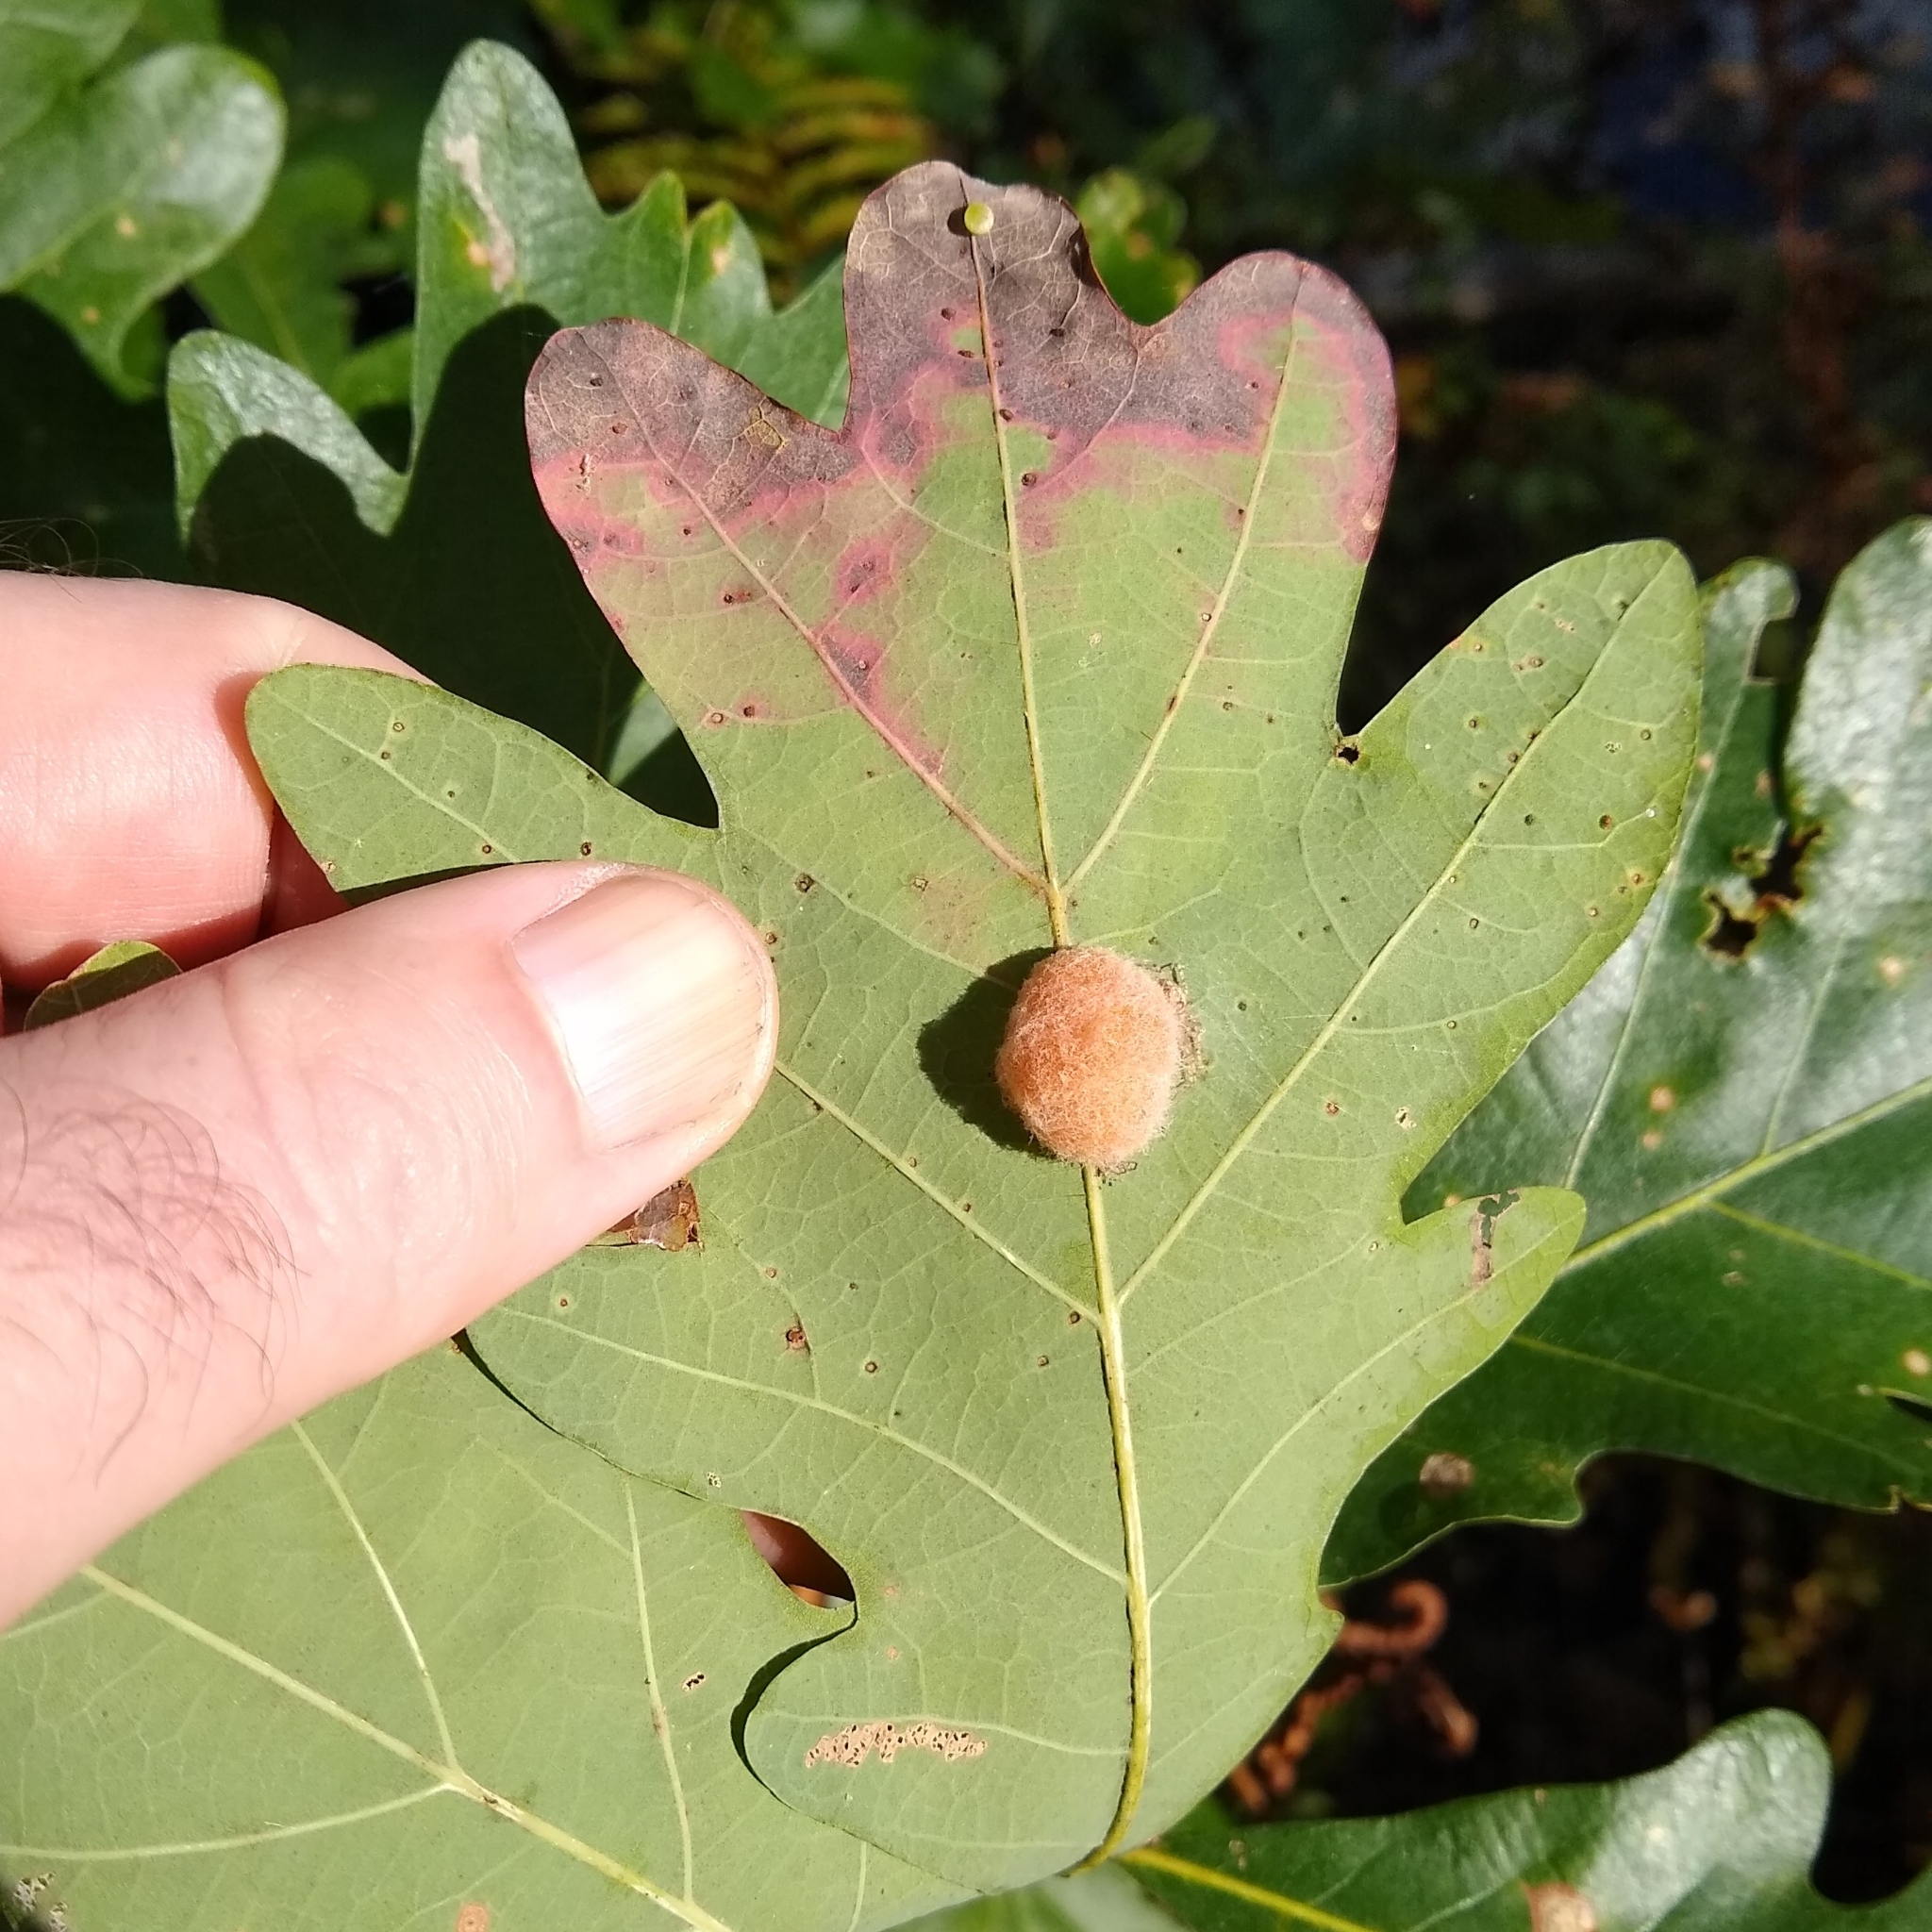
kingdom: Animalia
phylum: Arthropoda
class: Insecta
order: Hymenoptera
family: Cynipidae
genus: Andricus
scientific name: Andricus quercusflocci
